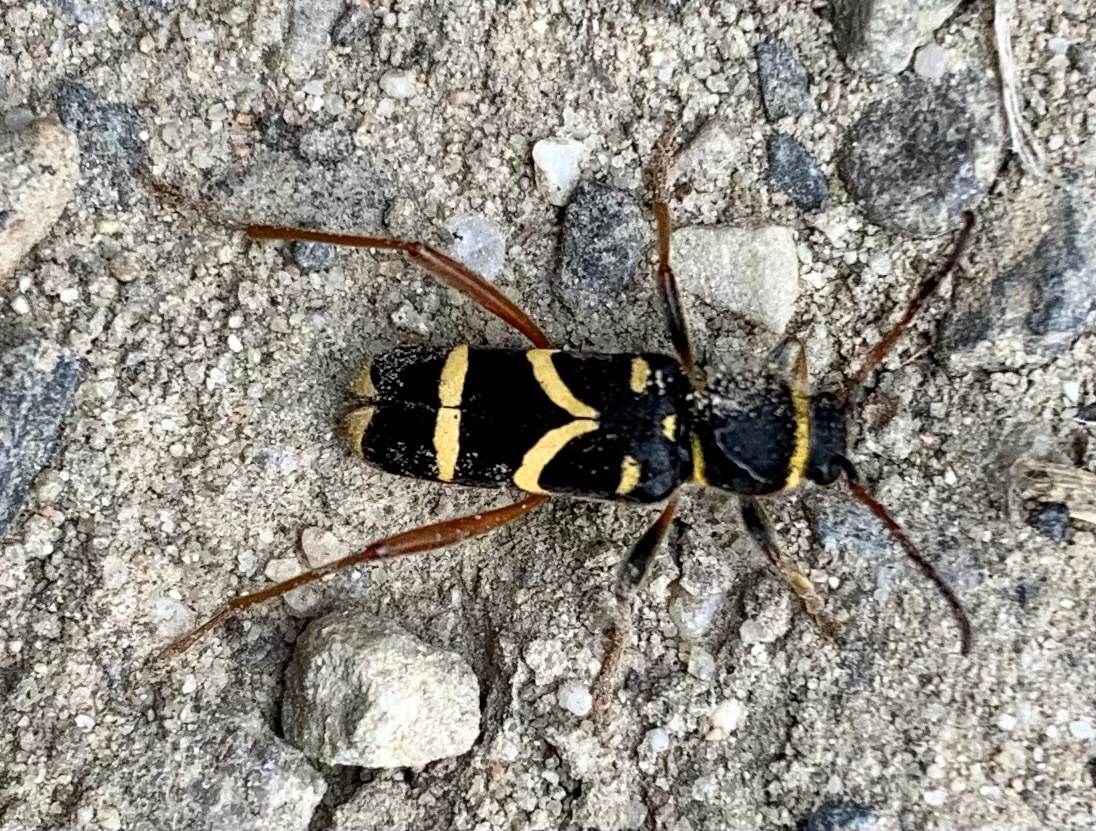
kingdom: Animalia
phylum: Arthropoda
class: Insecta
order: Coleoptera
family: Cerambycidae
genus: Clytus
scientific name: Clytus arietis
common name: Wasp beetle
